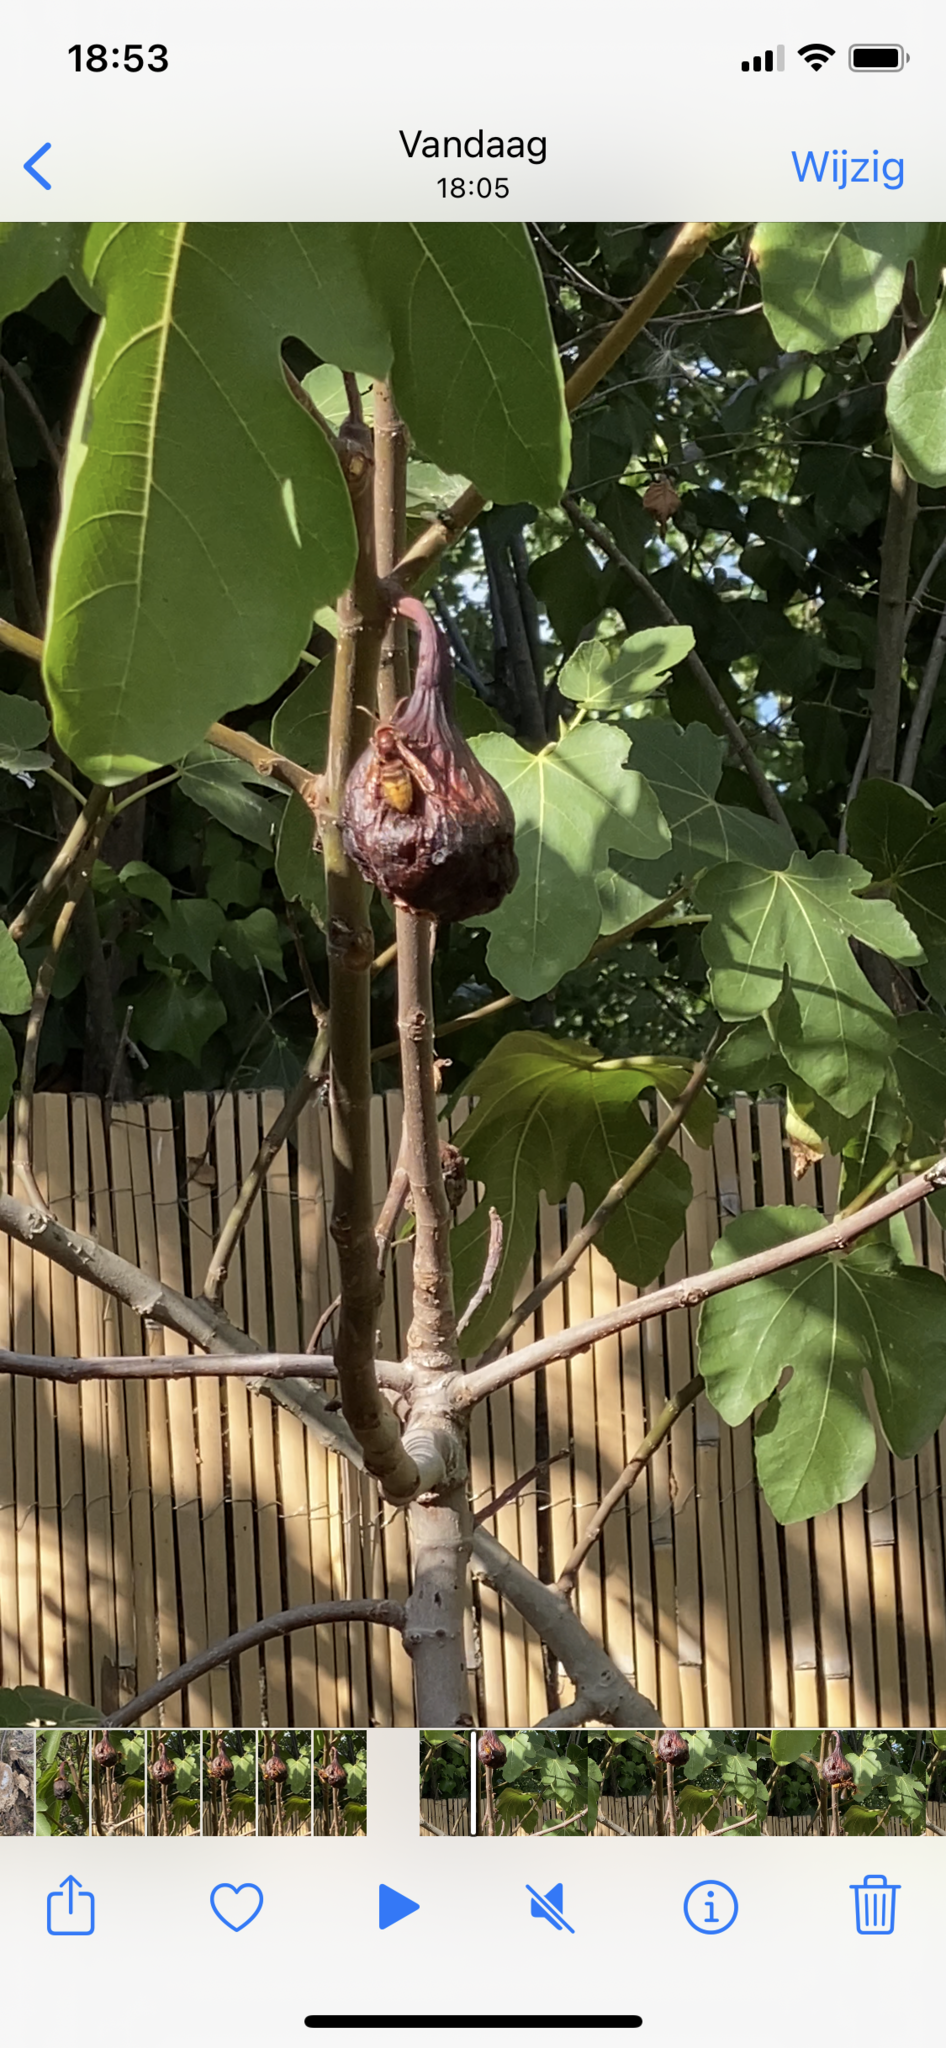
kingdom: Animalia
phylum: Arthropoda
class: Insecta
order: Hymenoptera
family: Vespidae
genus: Vespa
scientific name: Vespa crabro
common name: Hornet
